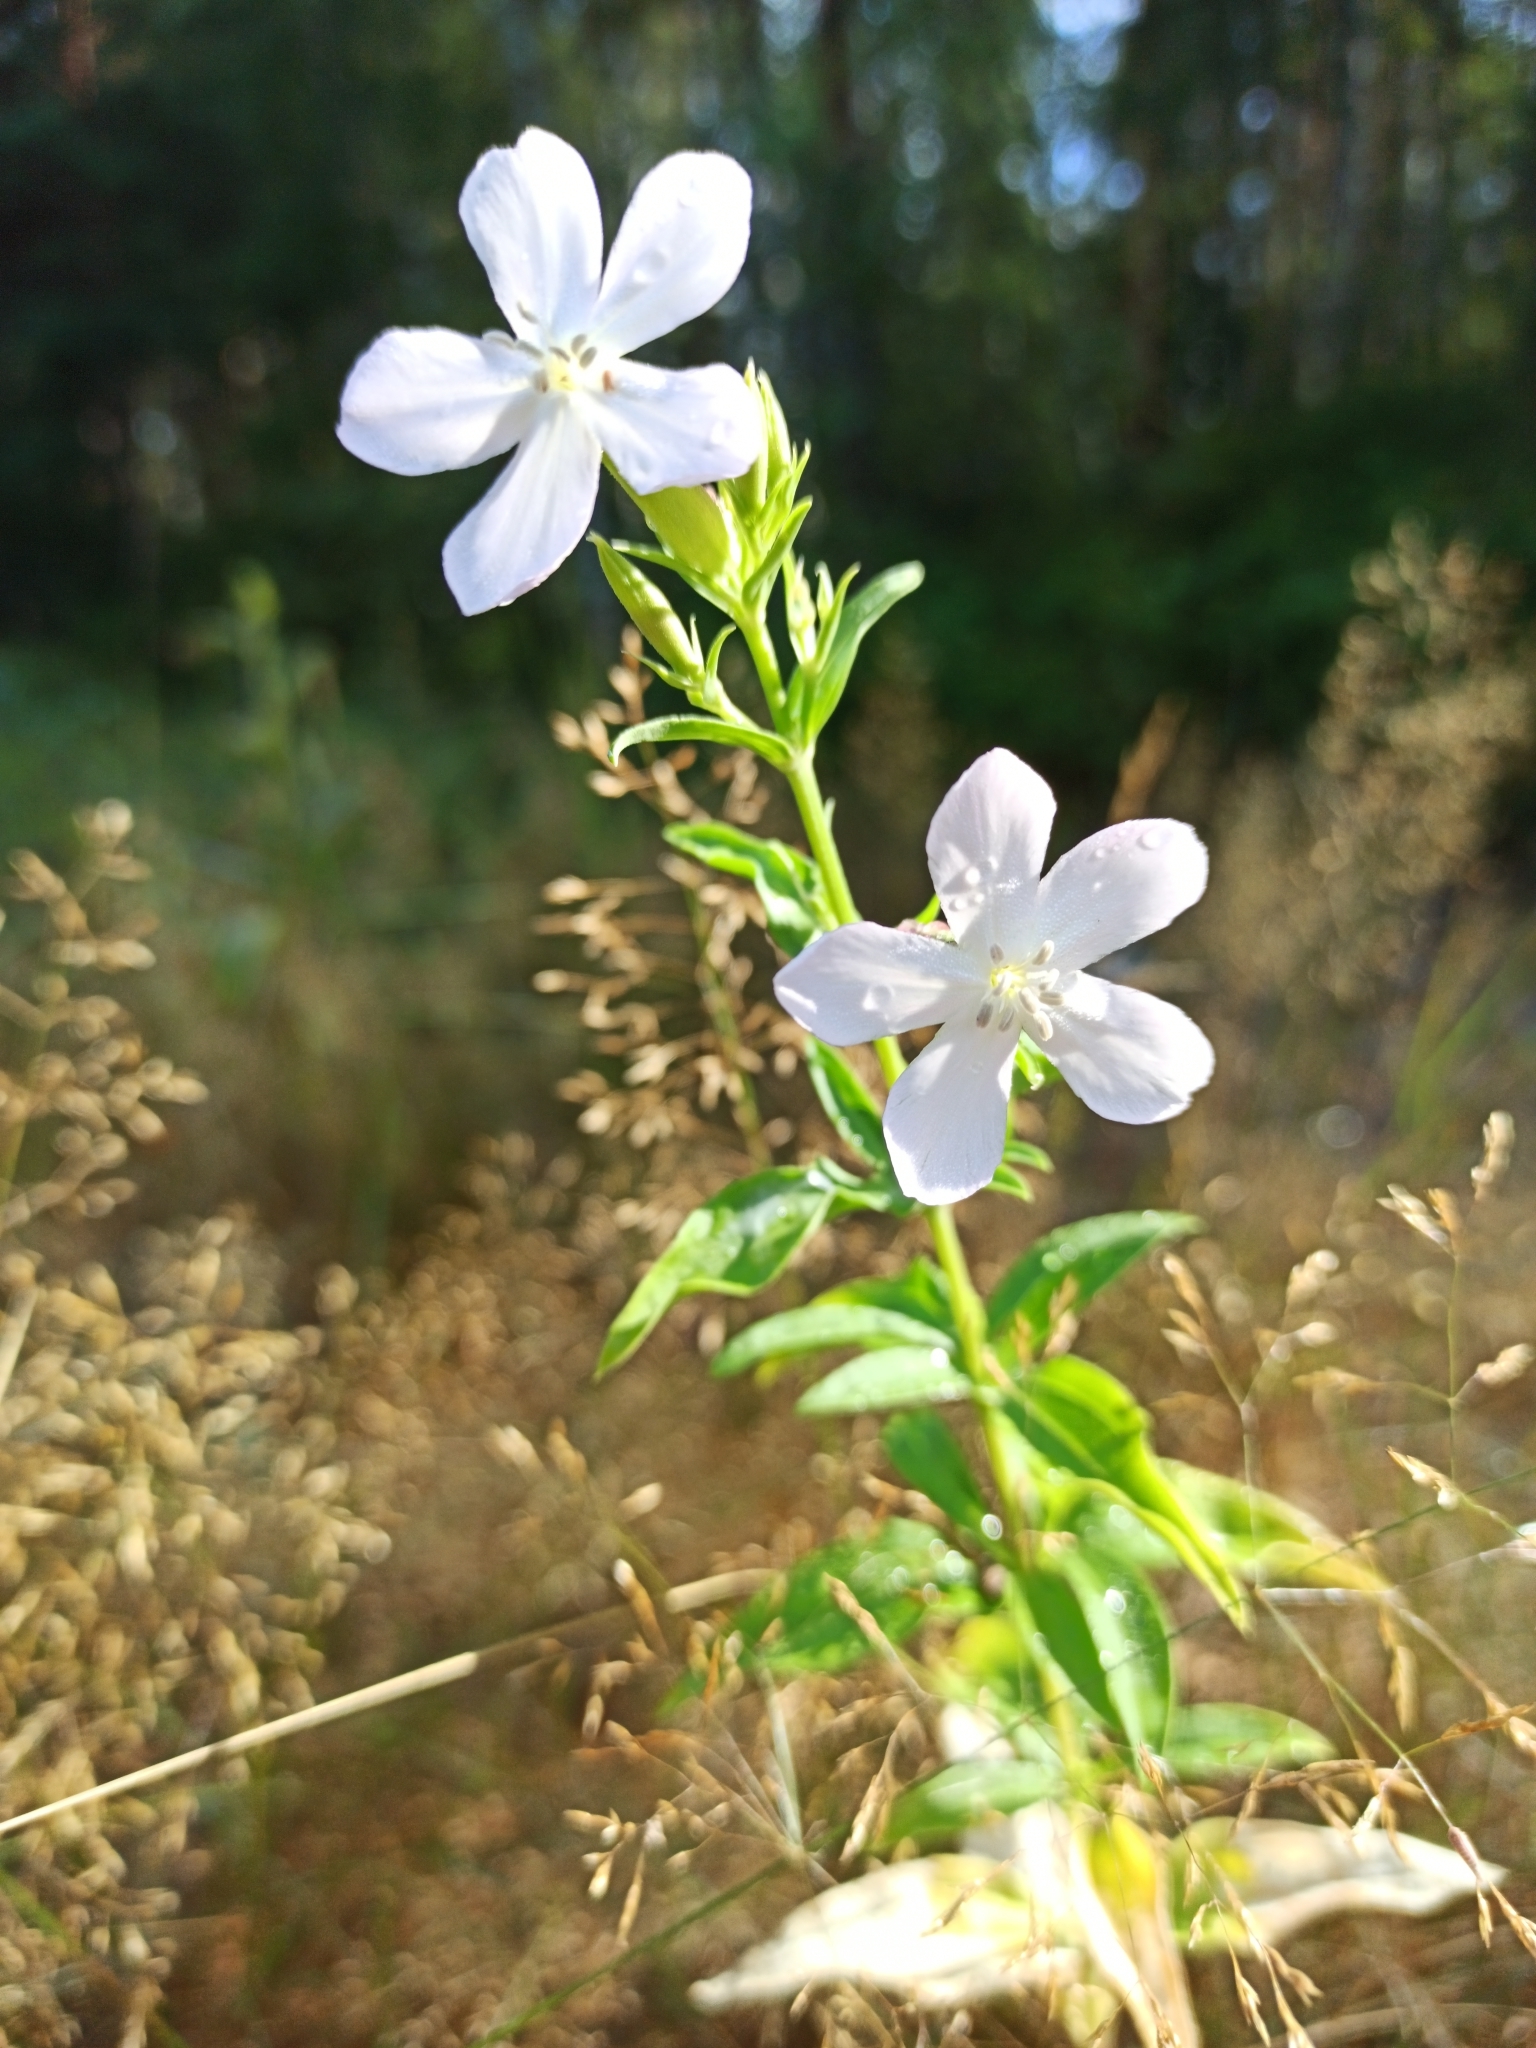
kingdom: Plantae
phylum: Tracheophyta
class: Magnoliopsida
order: Caryophyllales
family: Caryophyllaceae
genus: Saponaria
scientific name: Saponaria officinalis
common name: Soapwort
